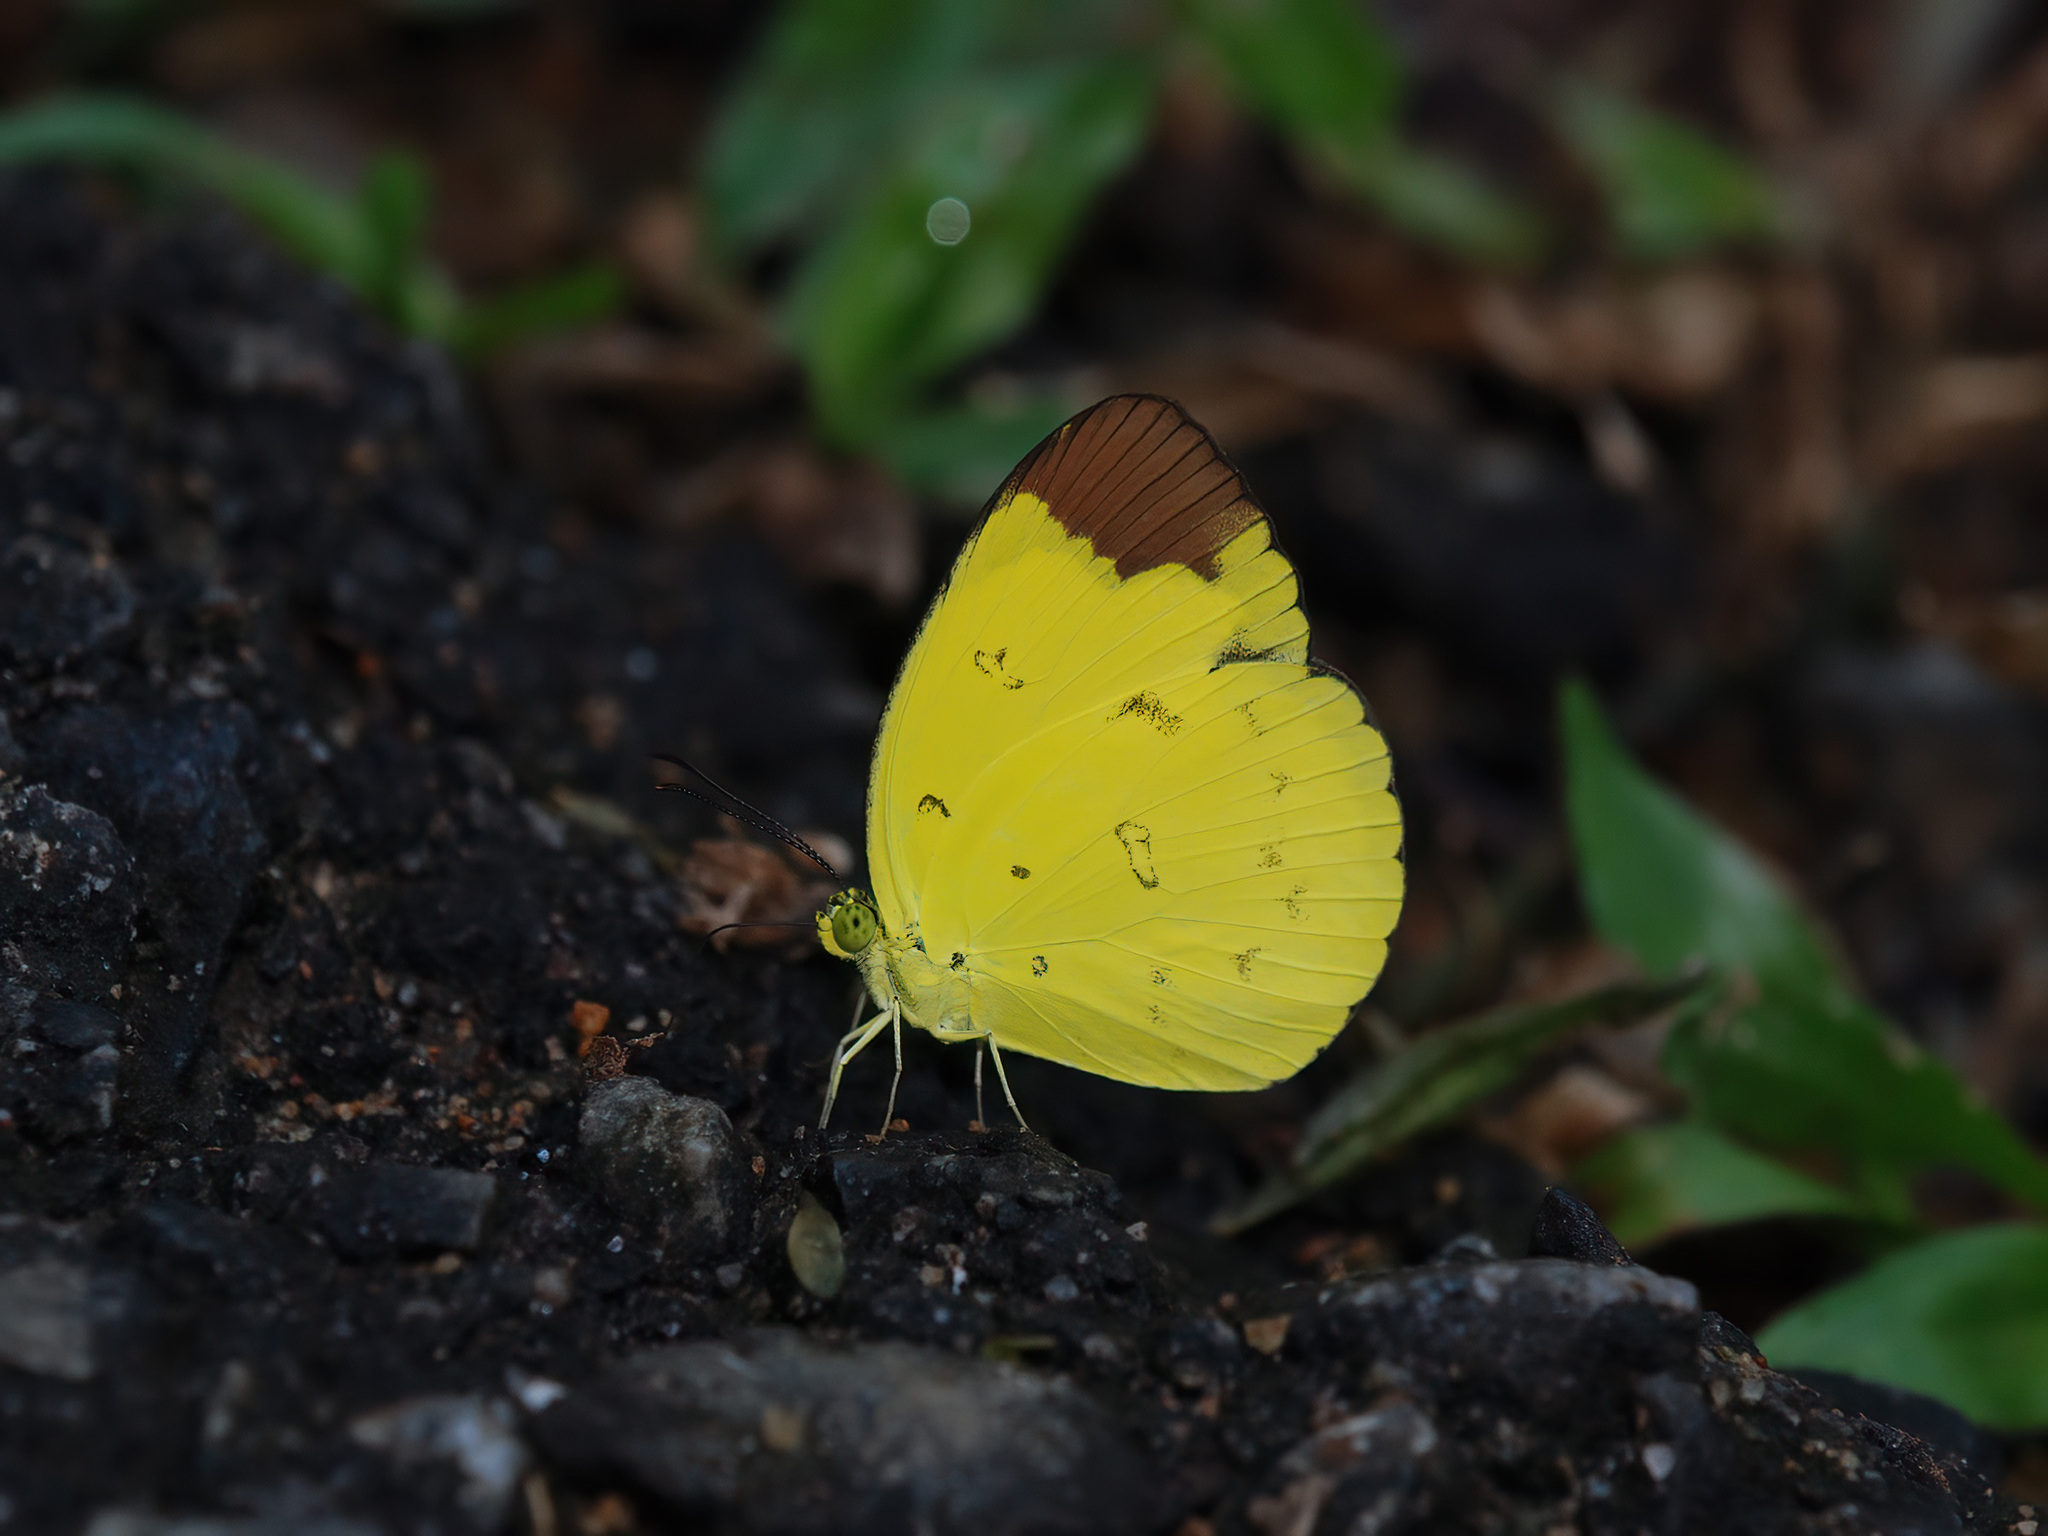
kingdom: Animalia
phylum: Arthropoda
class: Insecta
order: Lepidoptera
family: Pieridae
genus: Eurema
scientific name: Eurema sari
